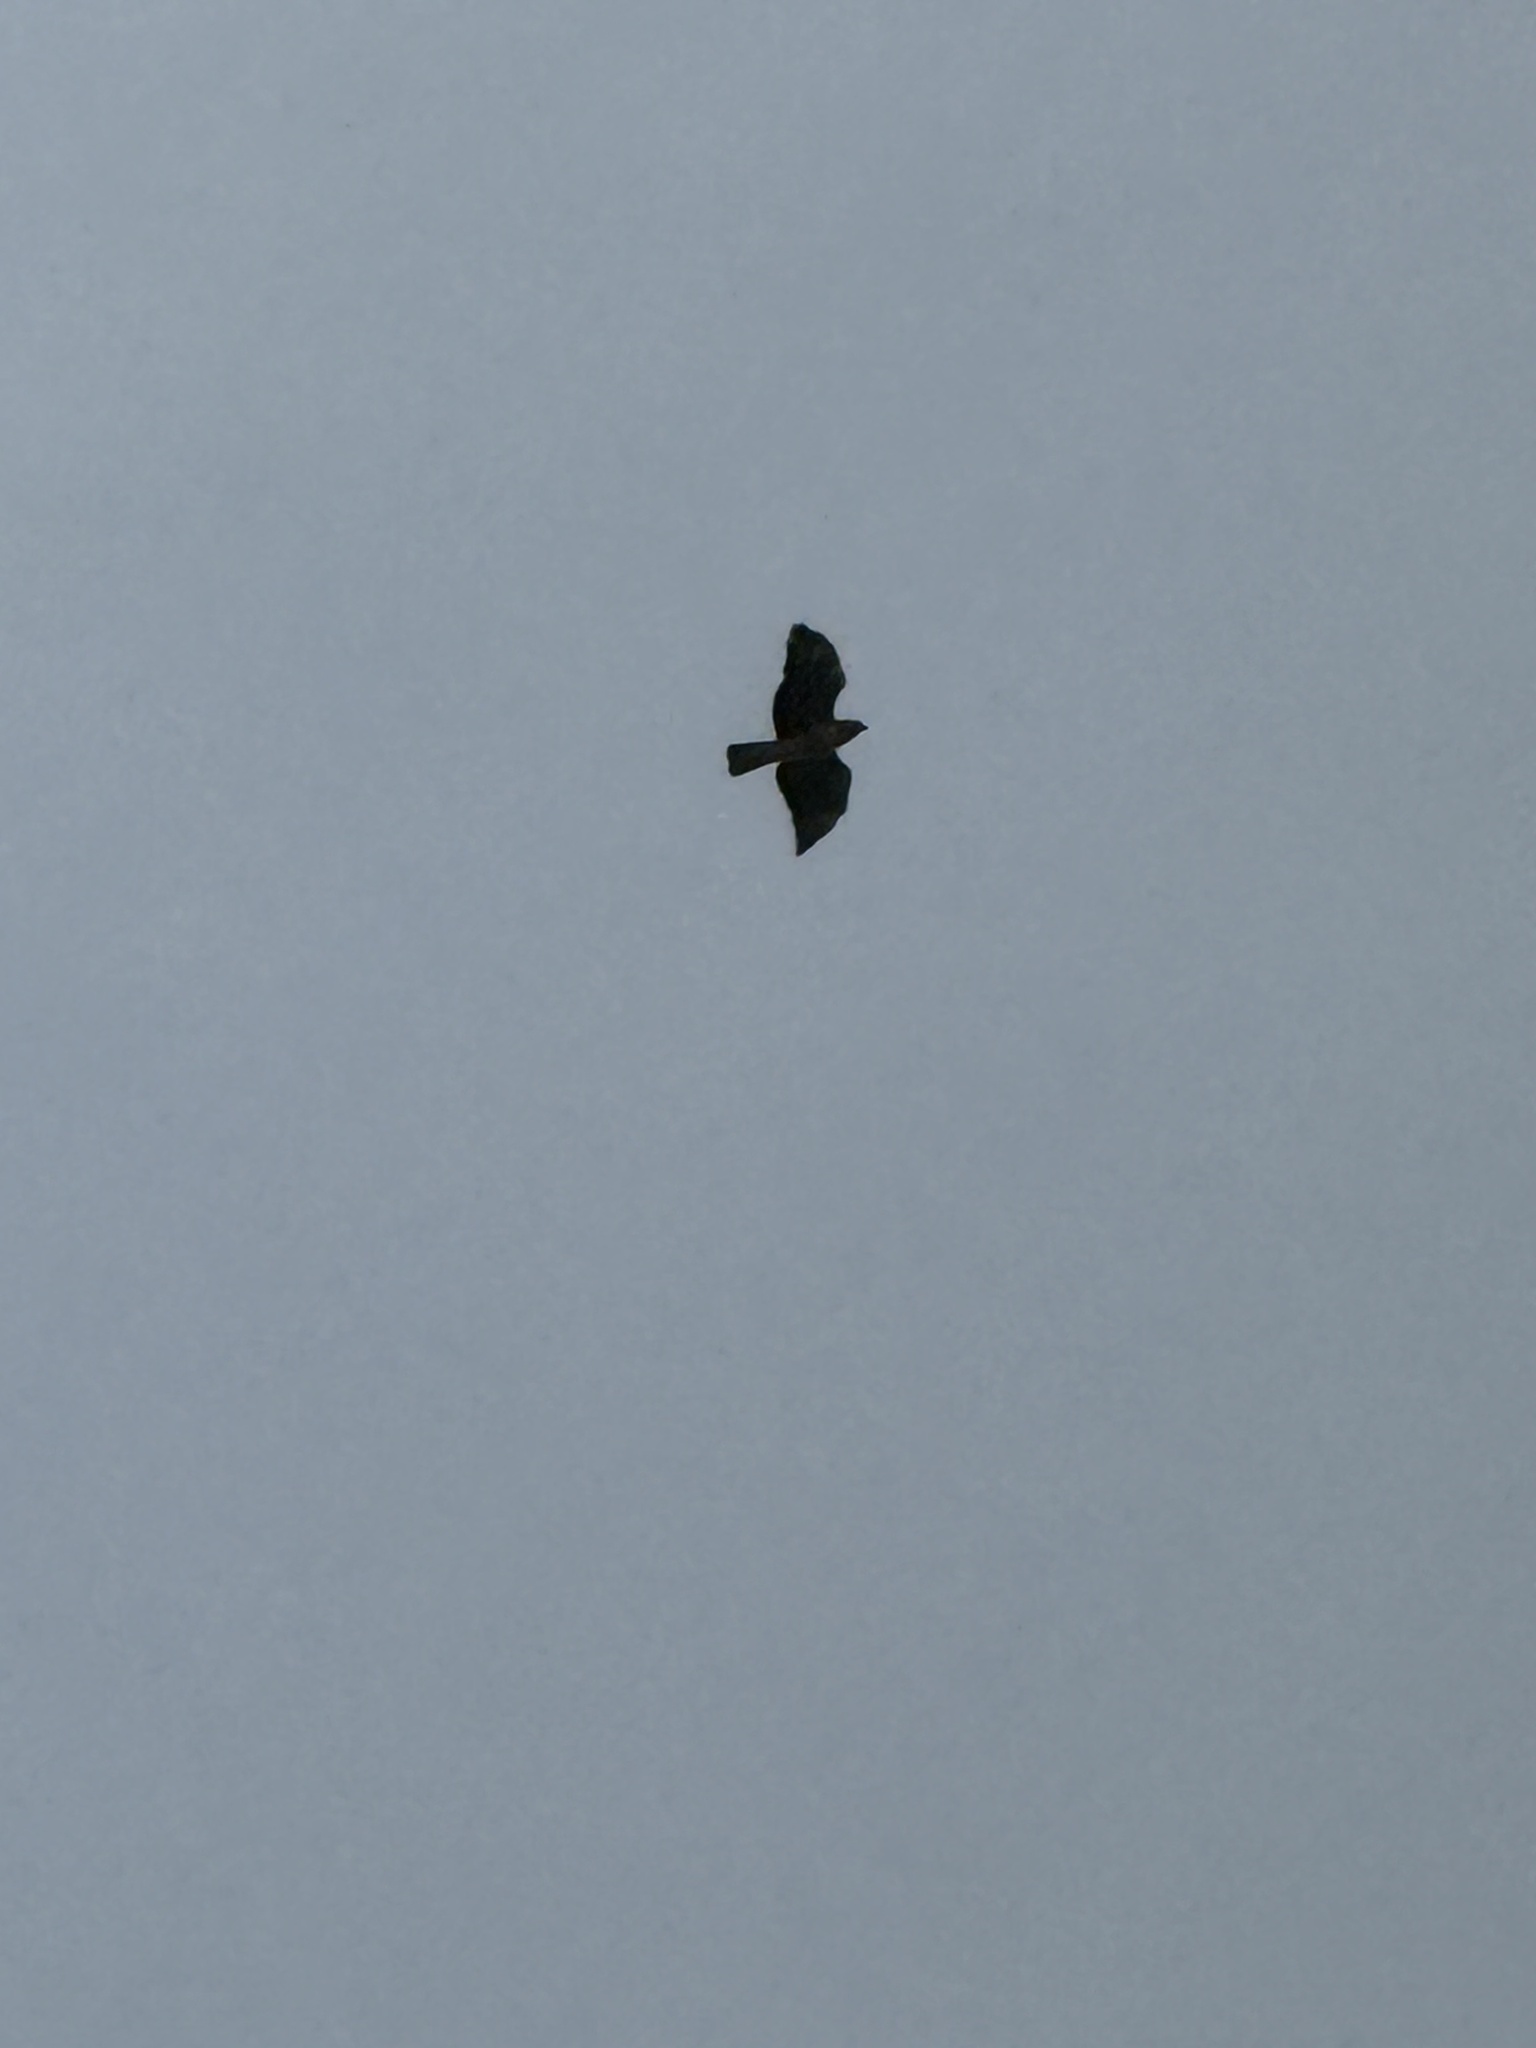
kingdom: Animalia
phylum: Chordata
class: Aves
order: Accipitriformes
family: Accipitridae
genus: Buteo
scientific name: Buteo jamaicensis
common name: Red-tailed hawk
